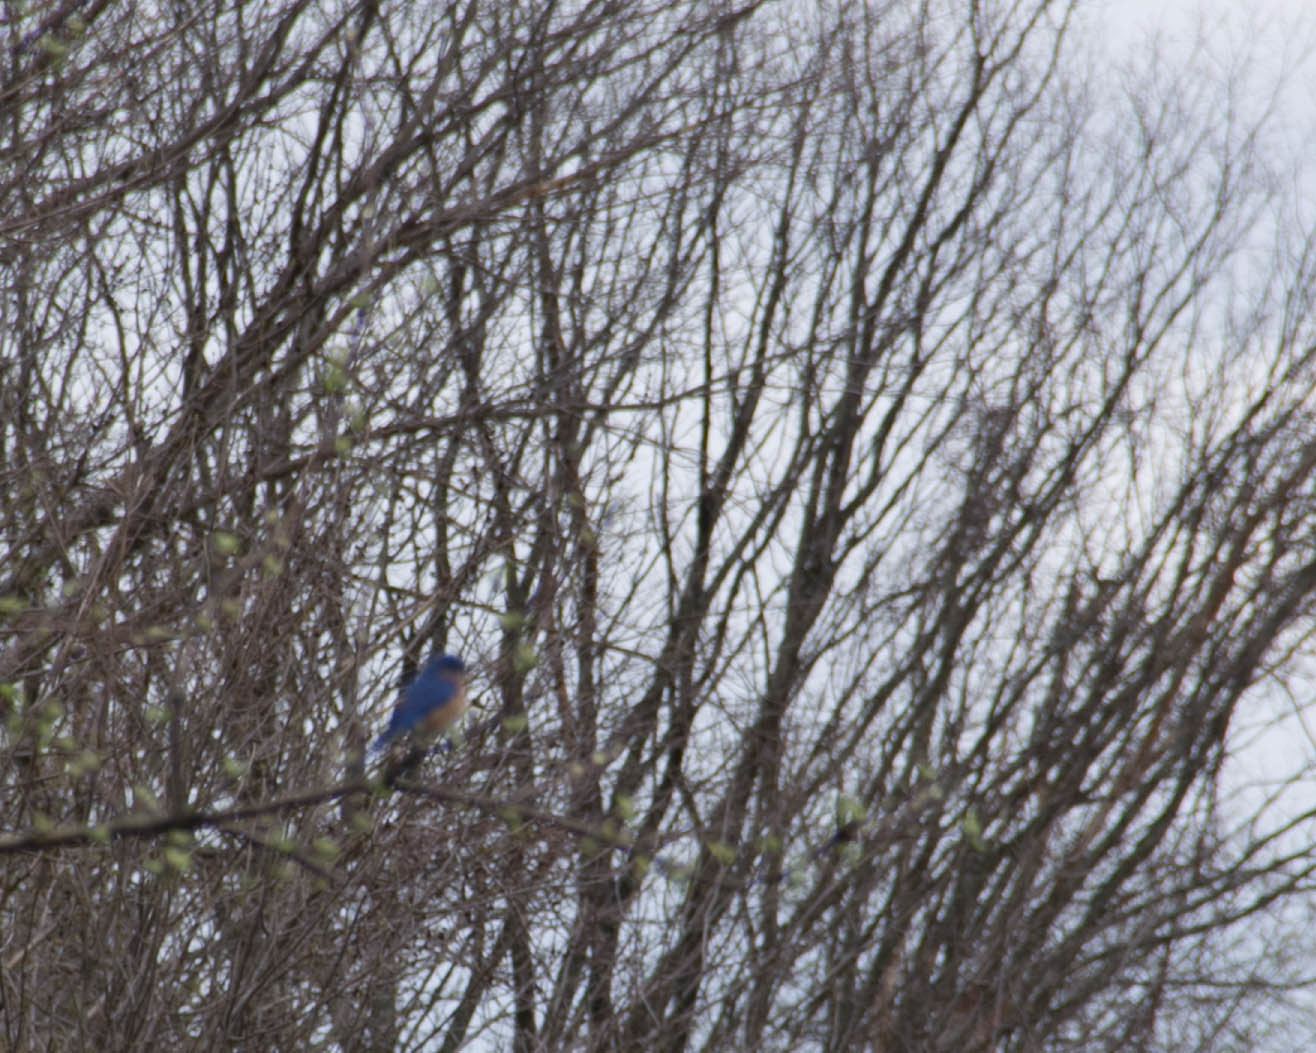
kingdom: Animalia
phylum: Chordata
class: Aves
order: Passeriformes
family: Turdidae
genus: Sialia
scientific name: Sialia sialis
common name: Eastern bluebird
